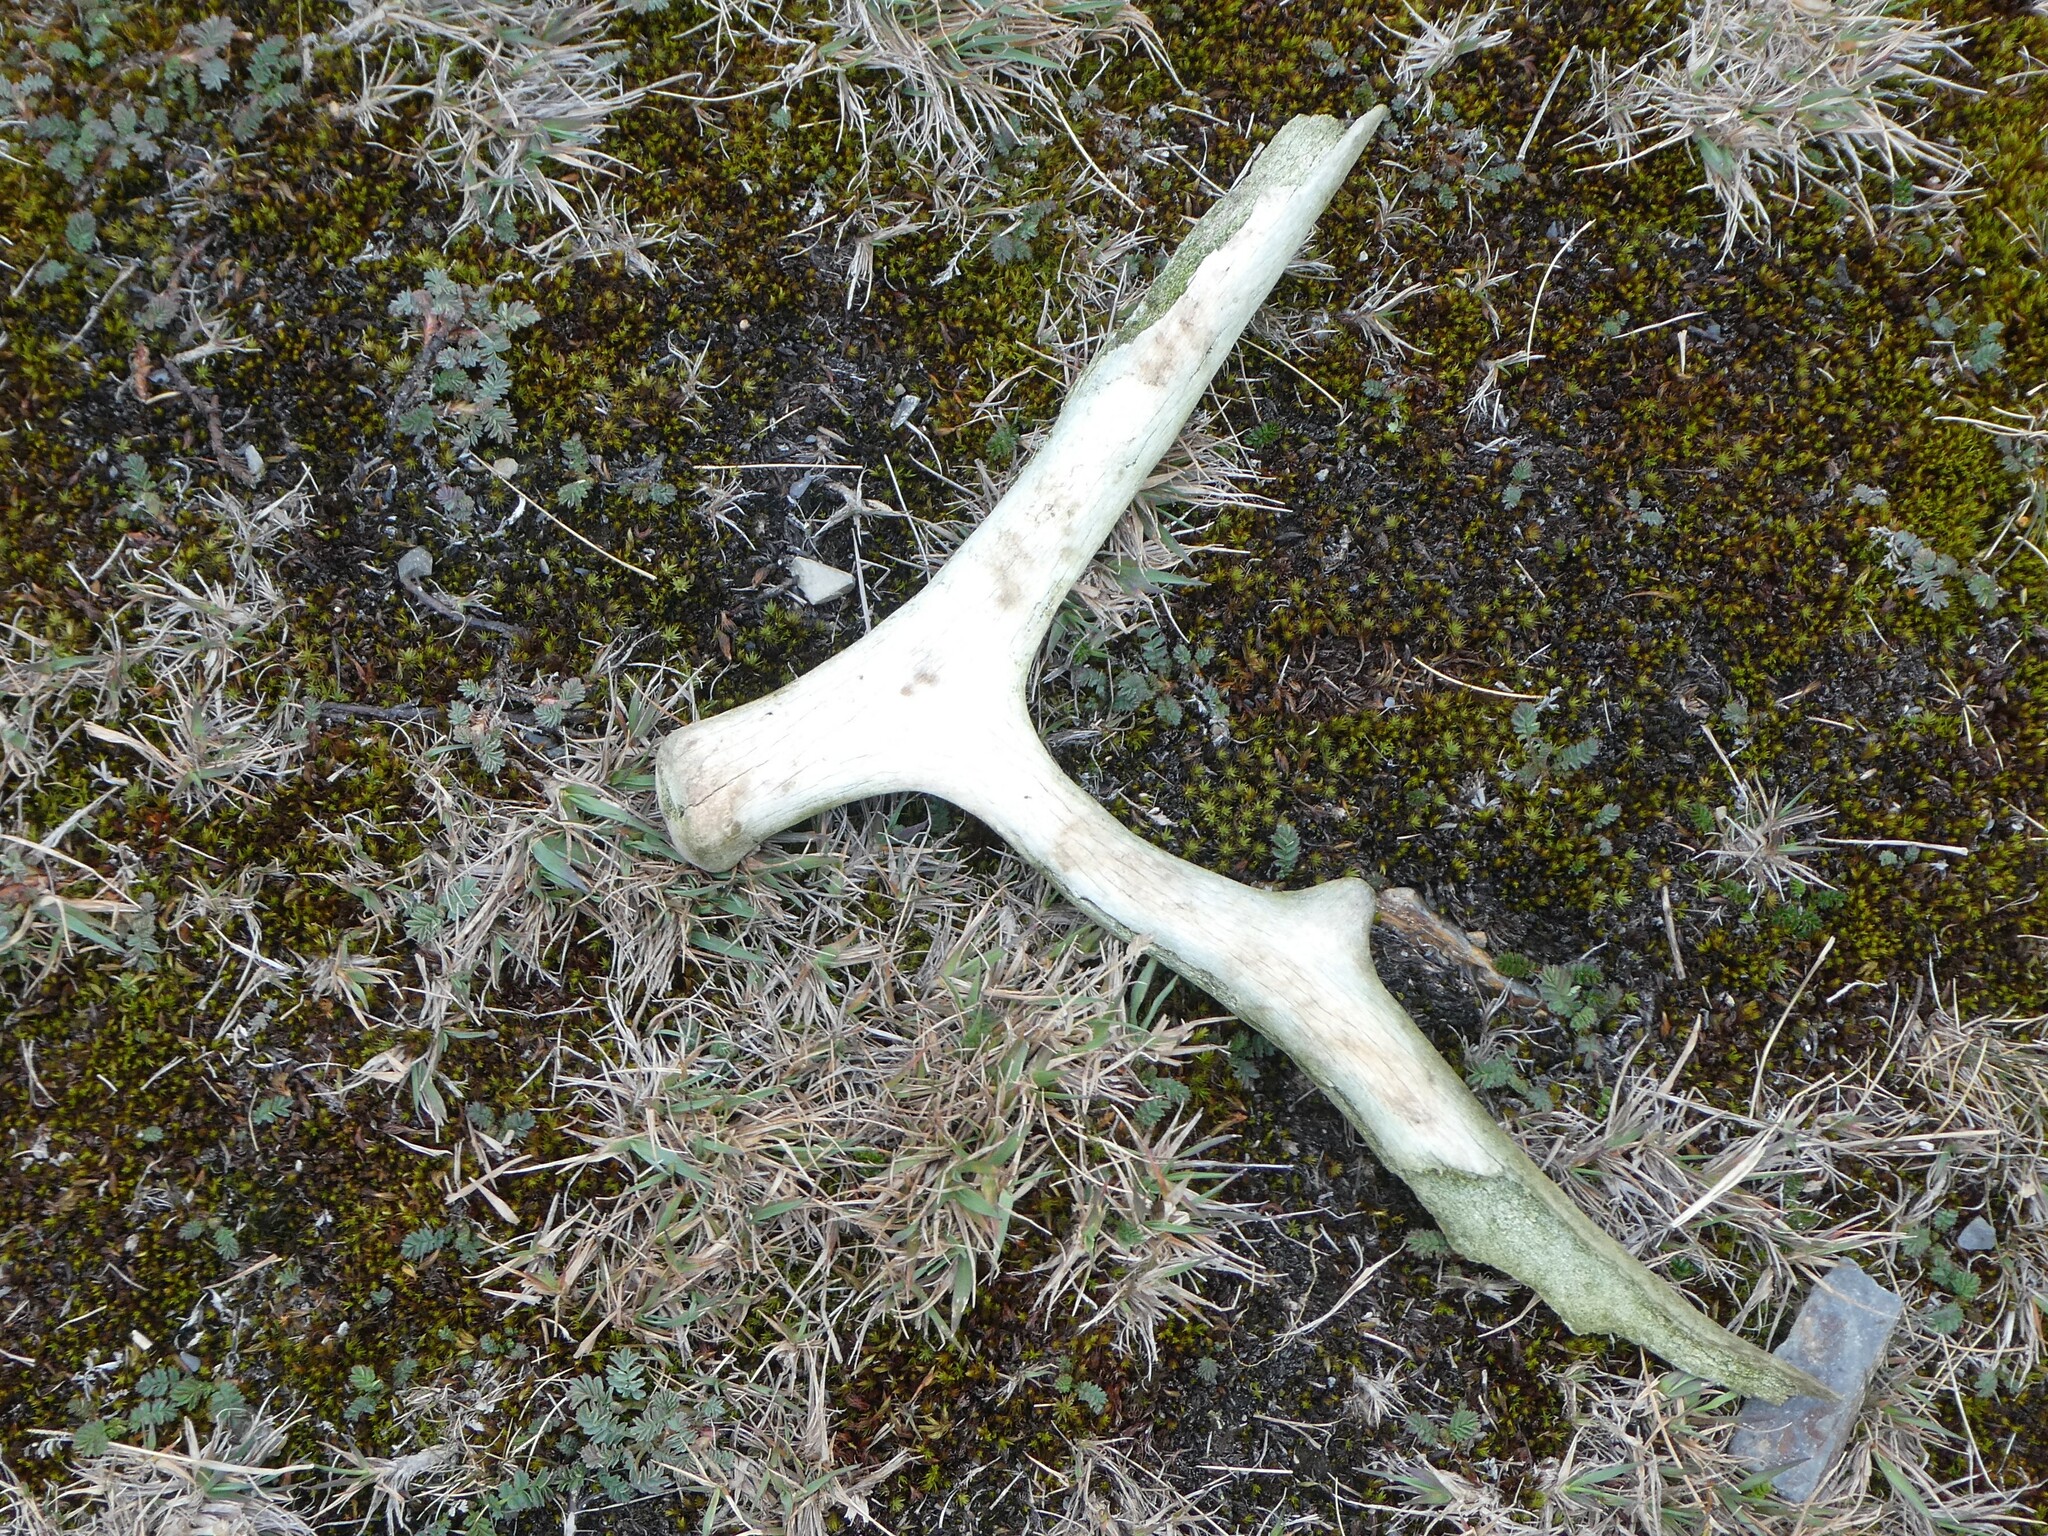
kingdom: Animalia
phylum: Chordata
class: Mammalia
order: Artiodactyla
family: Cervidae
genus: Rangifer
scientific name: Rangifer tarandus
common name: Reindeer
